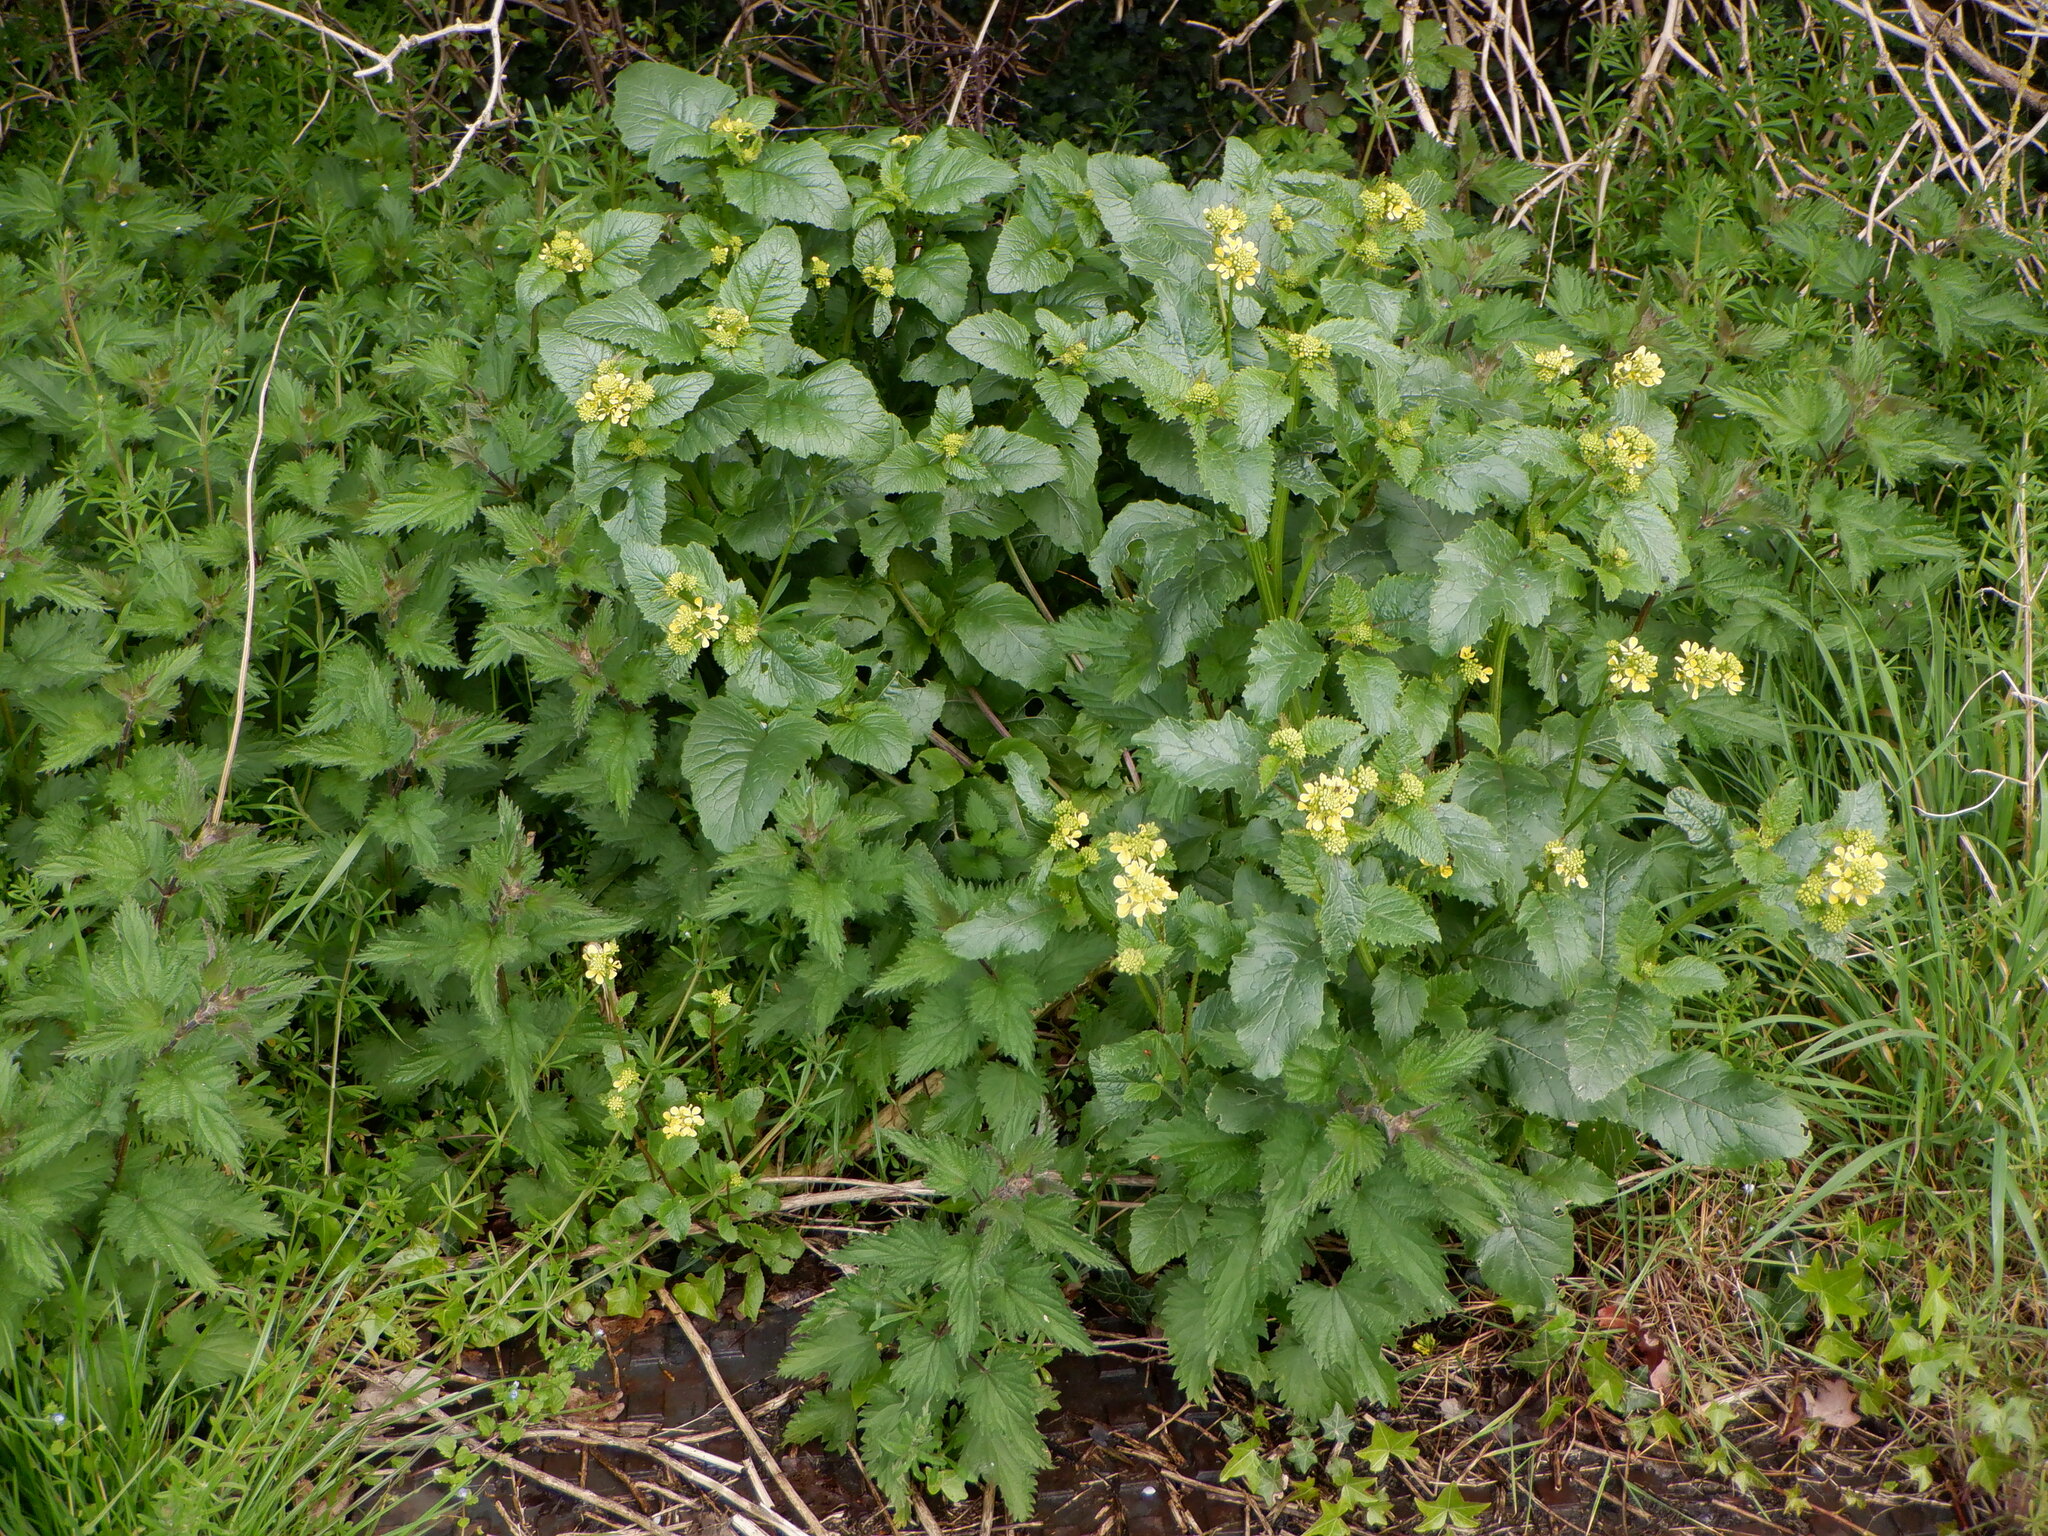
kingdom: Plantae
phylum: Tracheophyta
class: Magnoliopsida
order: Brassicales
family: Brassicaceae
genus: Sinapis
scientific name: Sinapis arvensis
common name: Charlock
